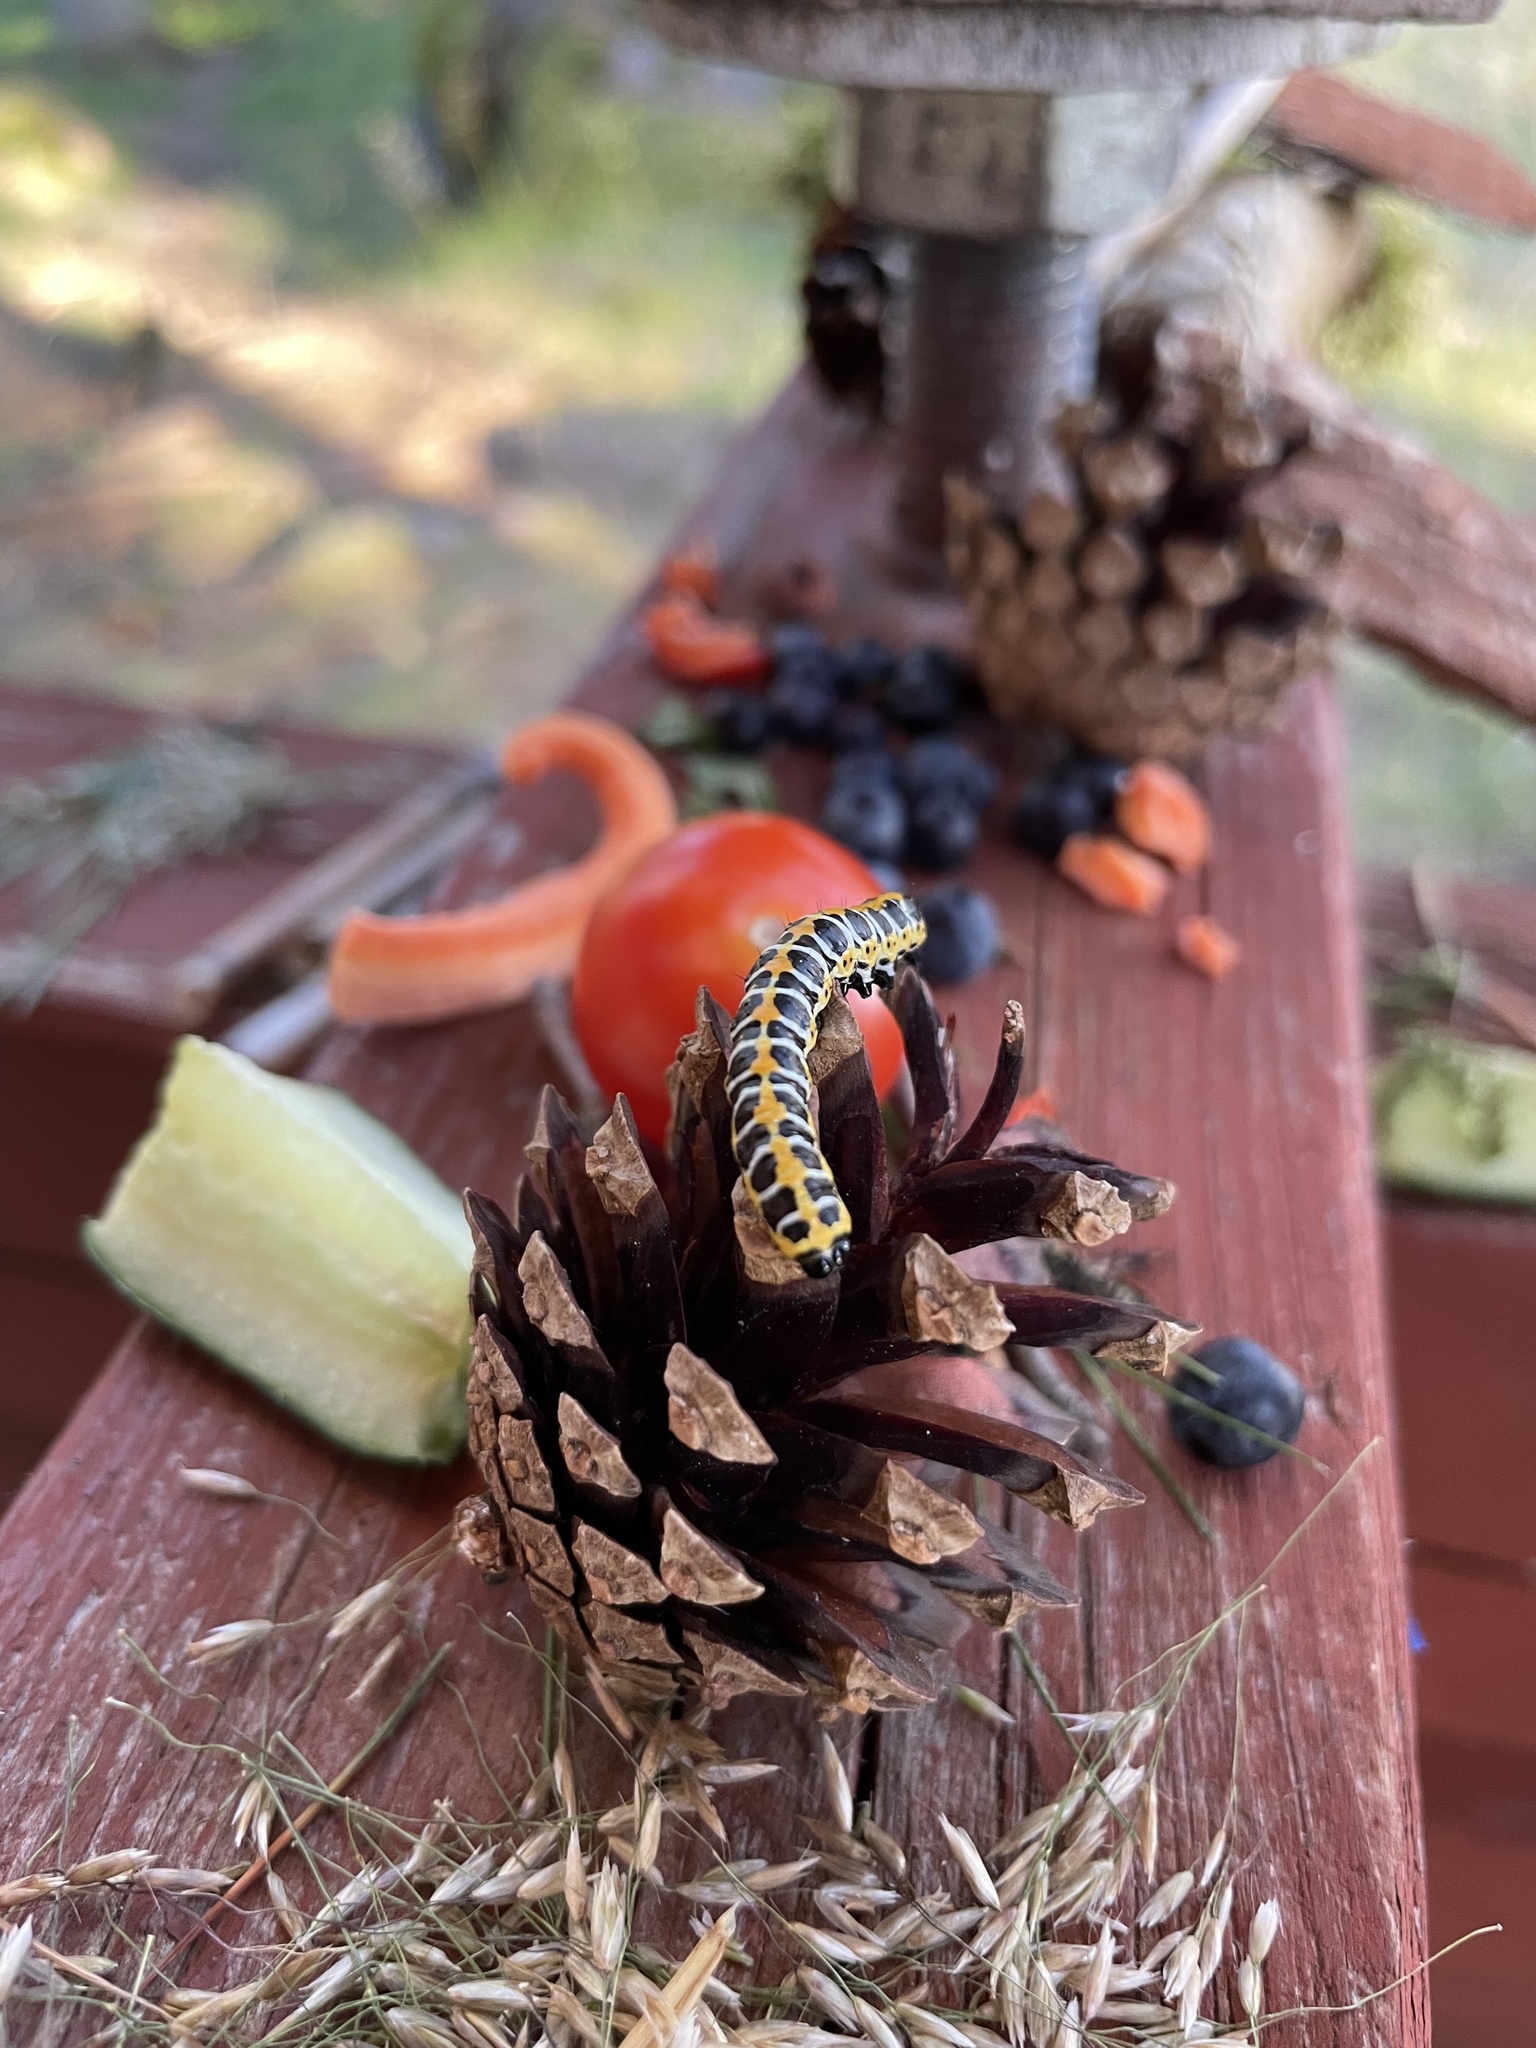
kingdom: Animalia
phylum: Arthropoda
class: Insecta
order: Lepidoptera
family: Noctuidae
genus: Cucullia
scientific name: Cucullia lactucae
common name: Lettuce shark
